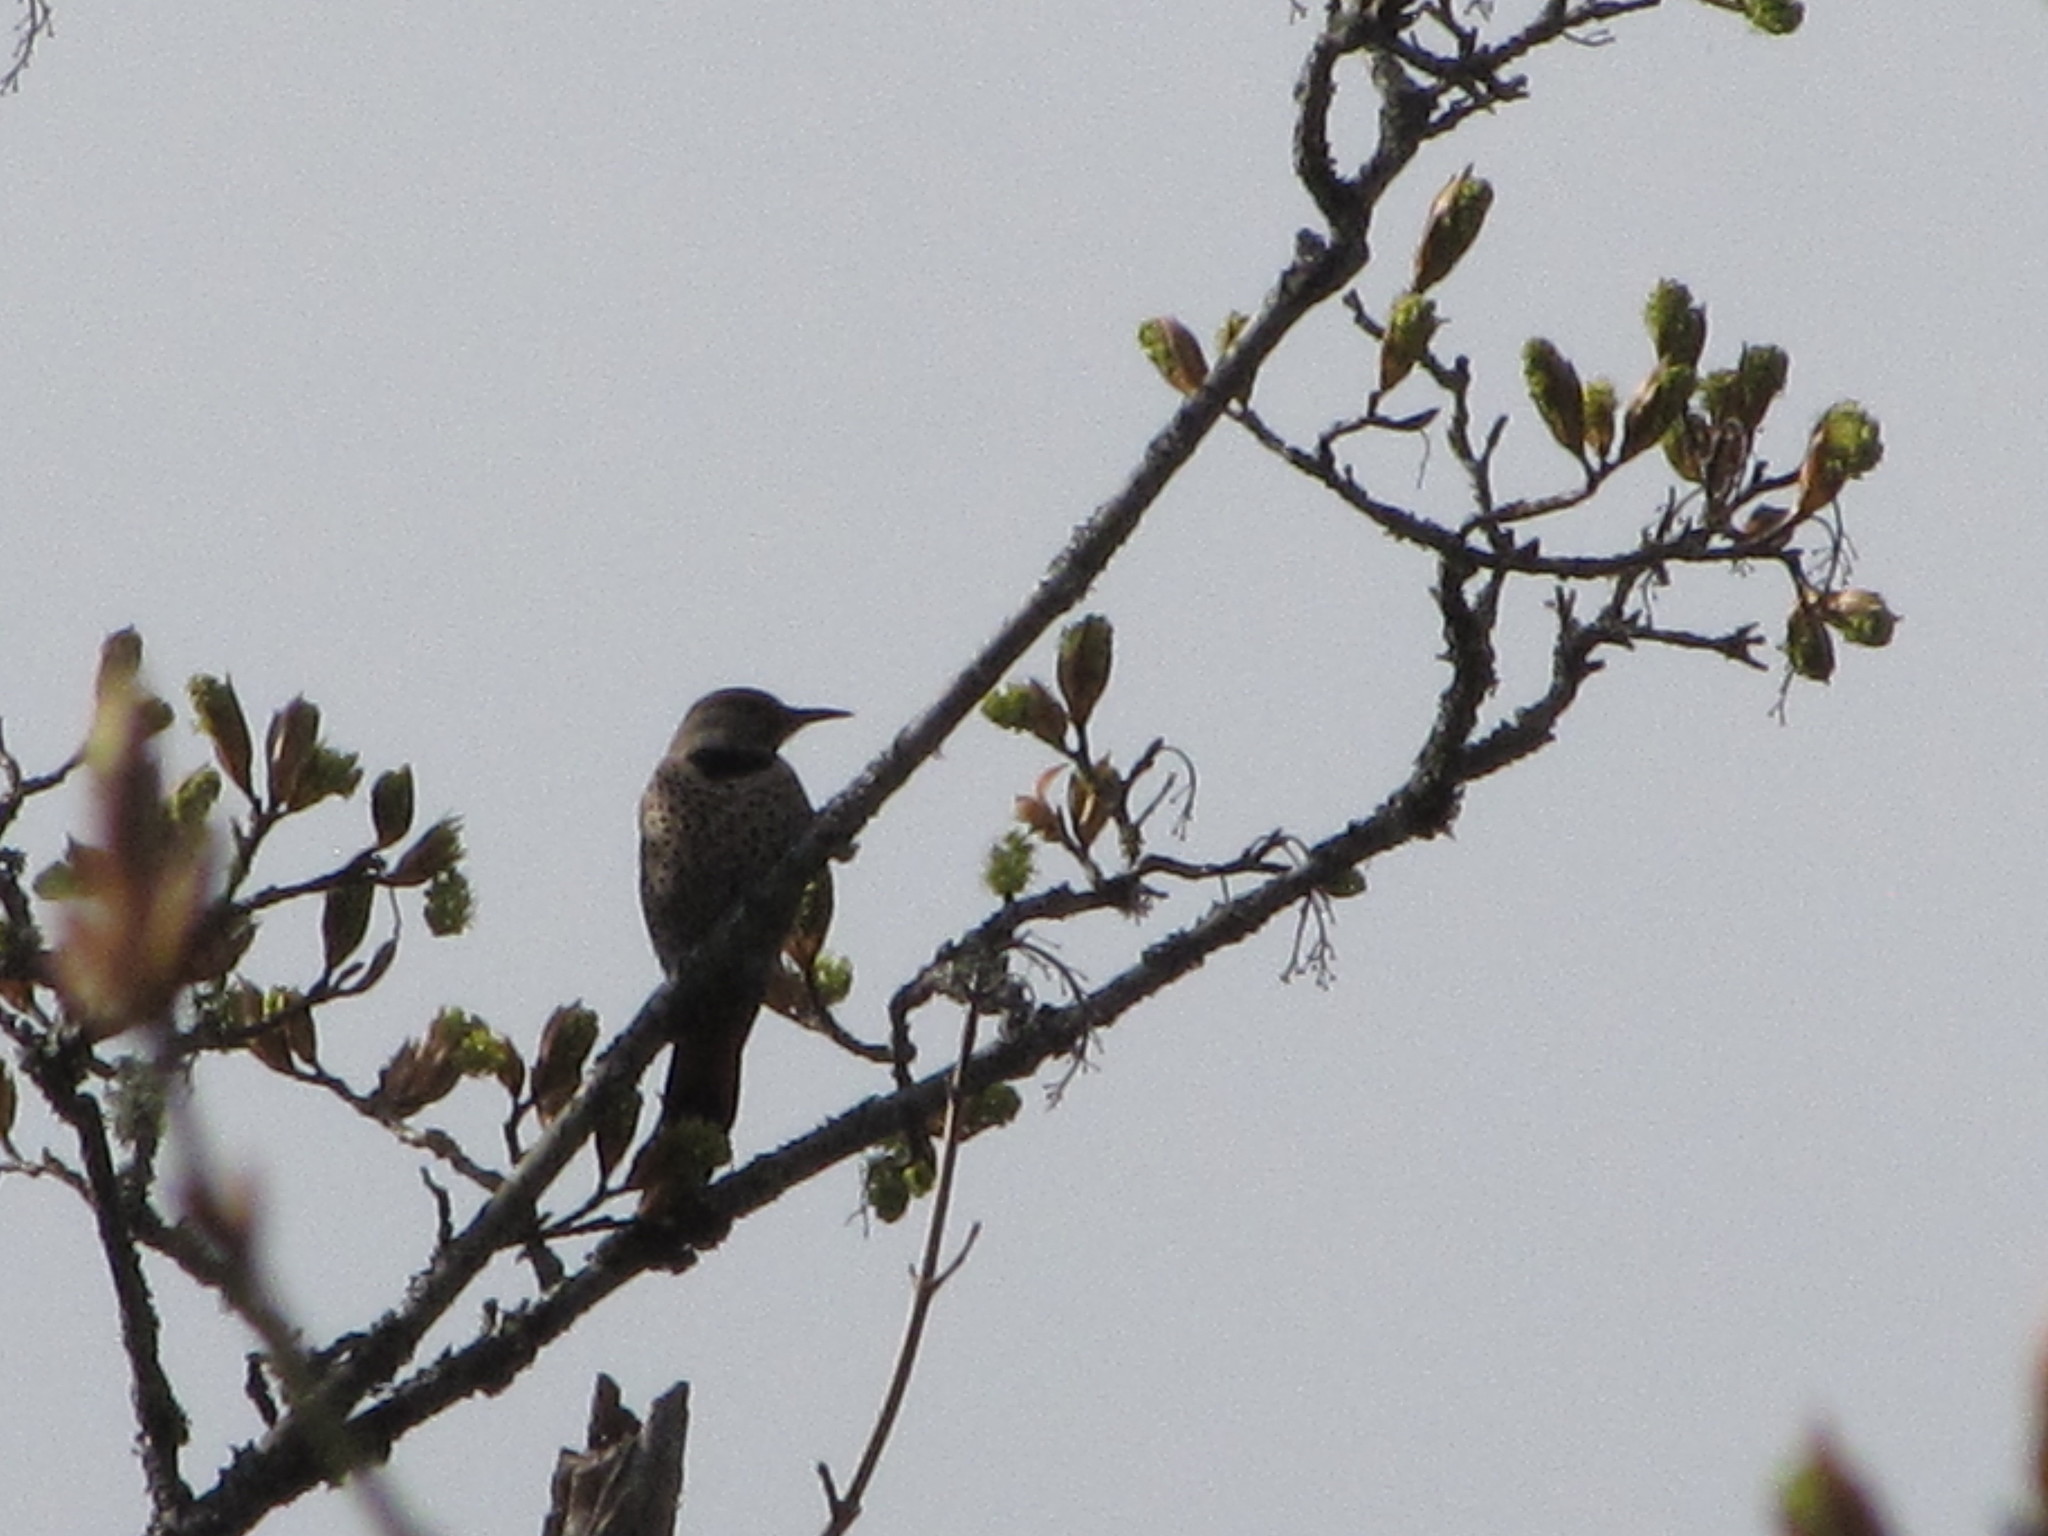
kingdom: Animalia
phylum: Chordata
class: Aves
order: Piciformes
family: Picidae
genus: Colaptes
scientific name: Colaptes auratus
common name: Northern flicker
